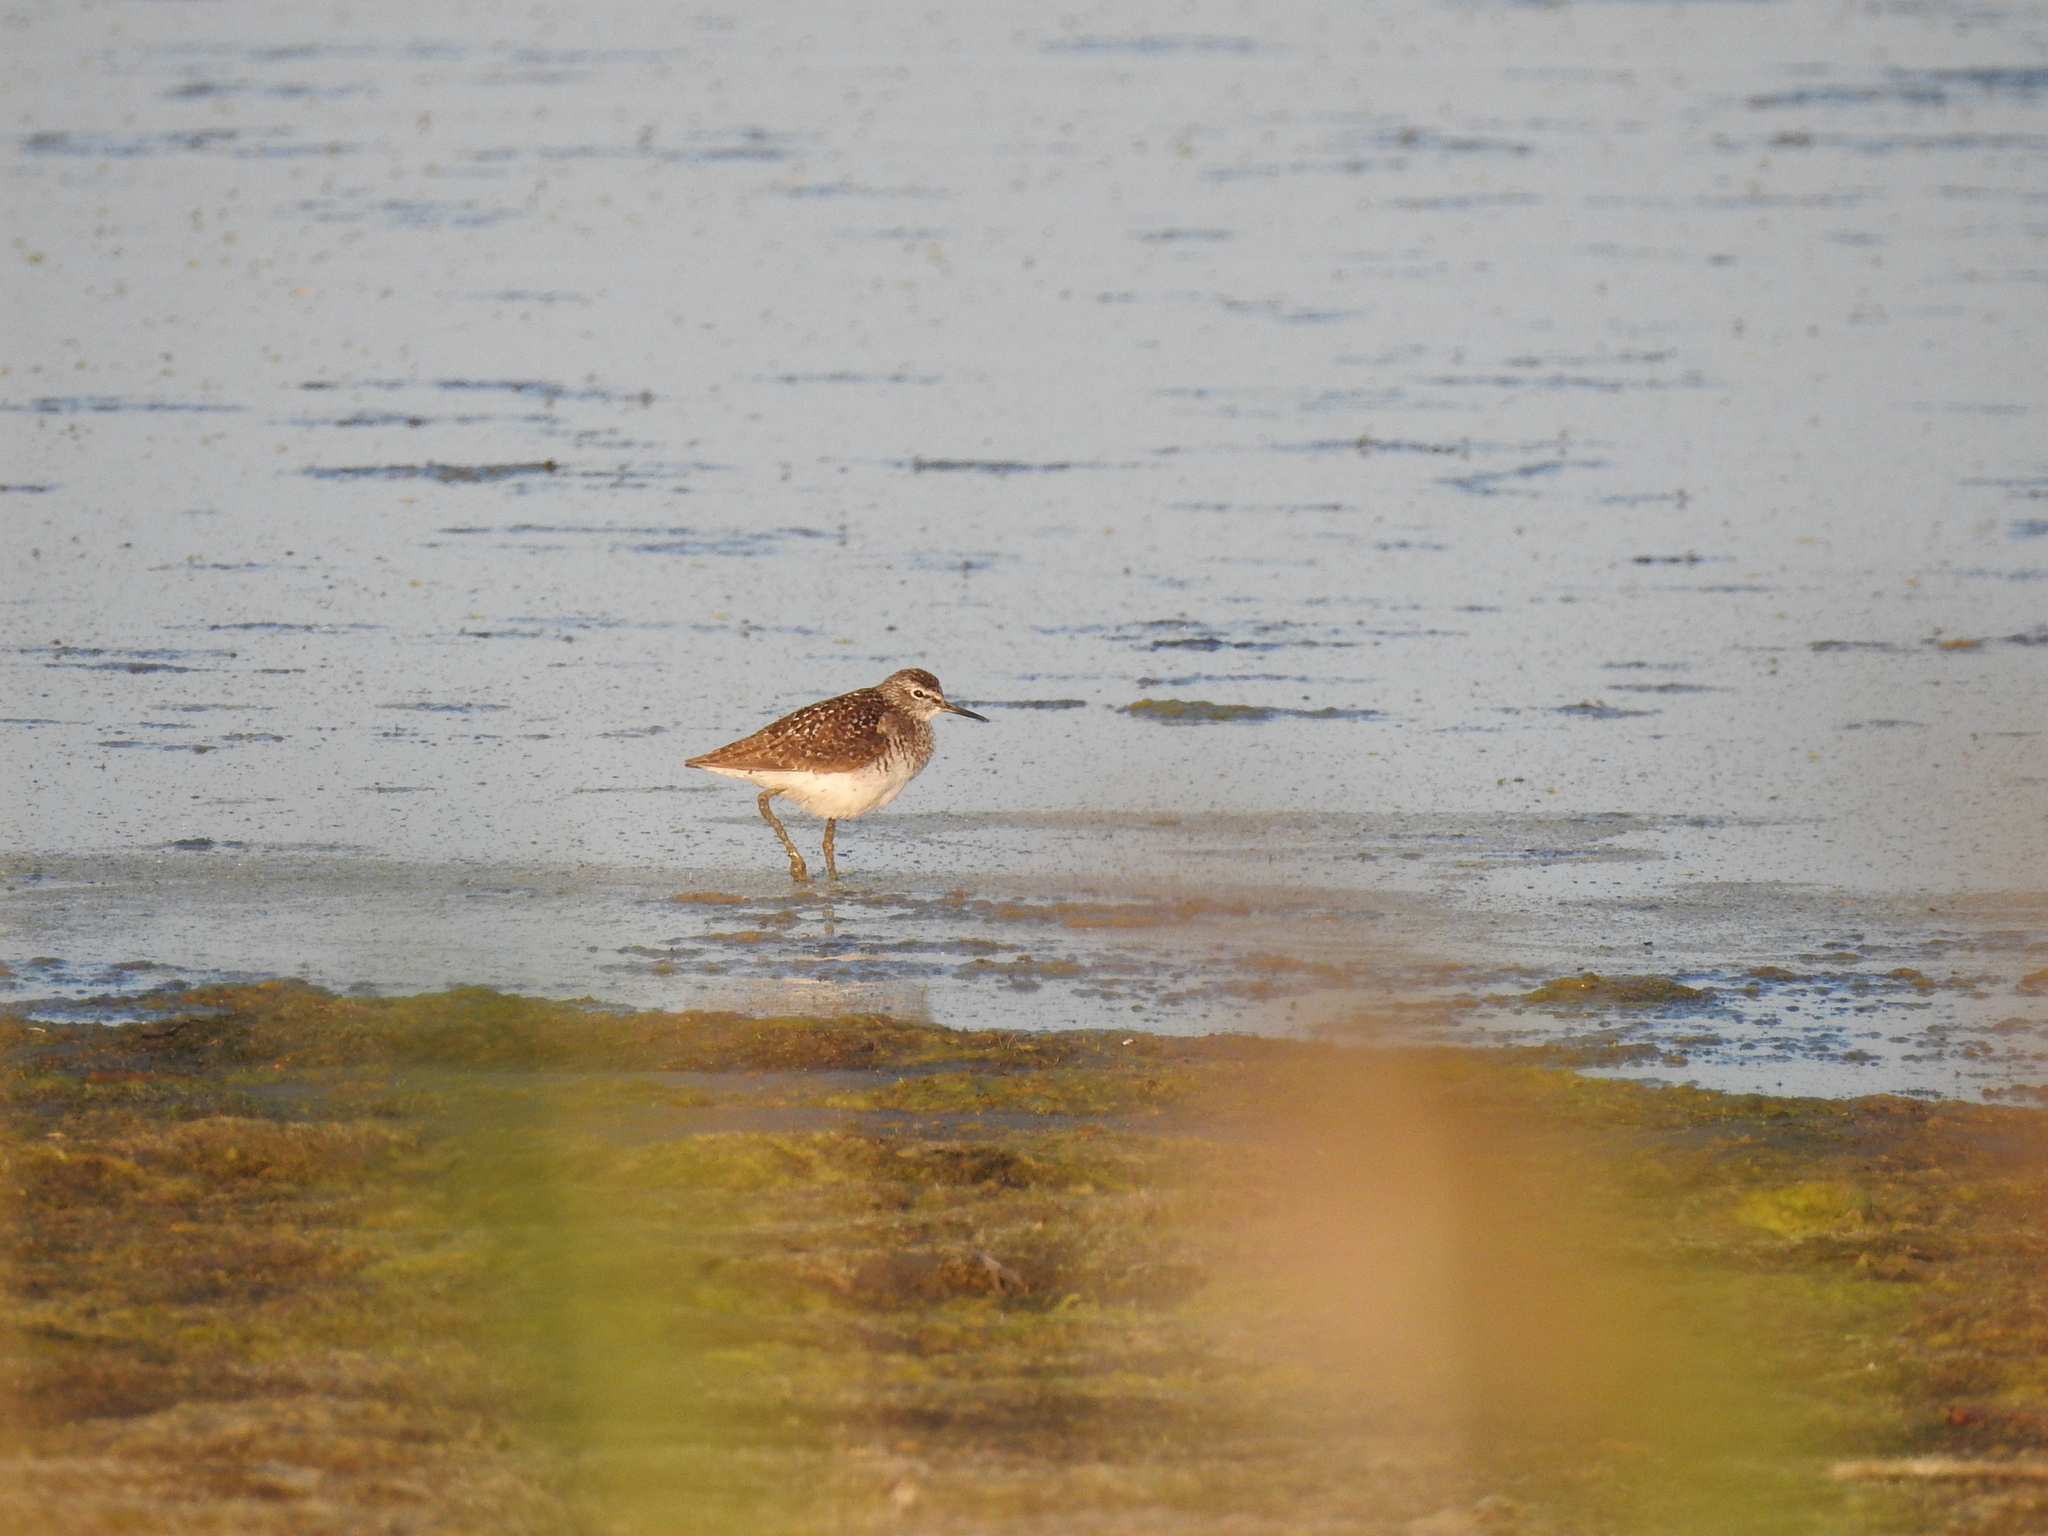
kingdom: Animalia
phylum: Chordata
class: Aves
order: Charadriiformes
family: Scolopacidae
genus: Tringa
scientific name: Tringa glareola
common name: Wood sandpiper
